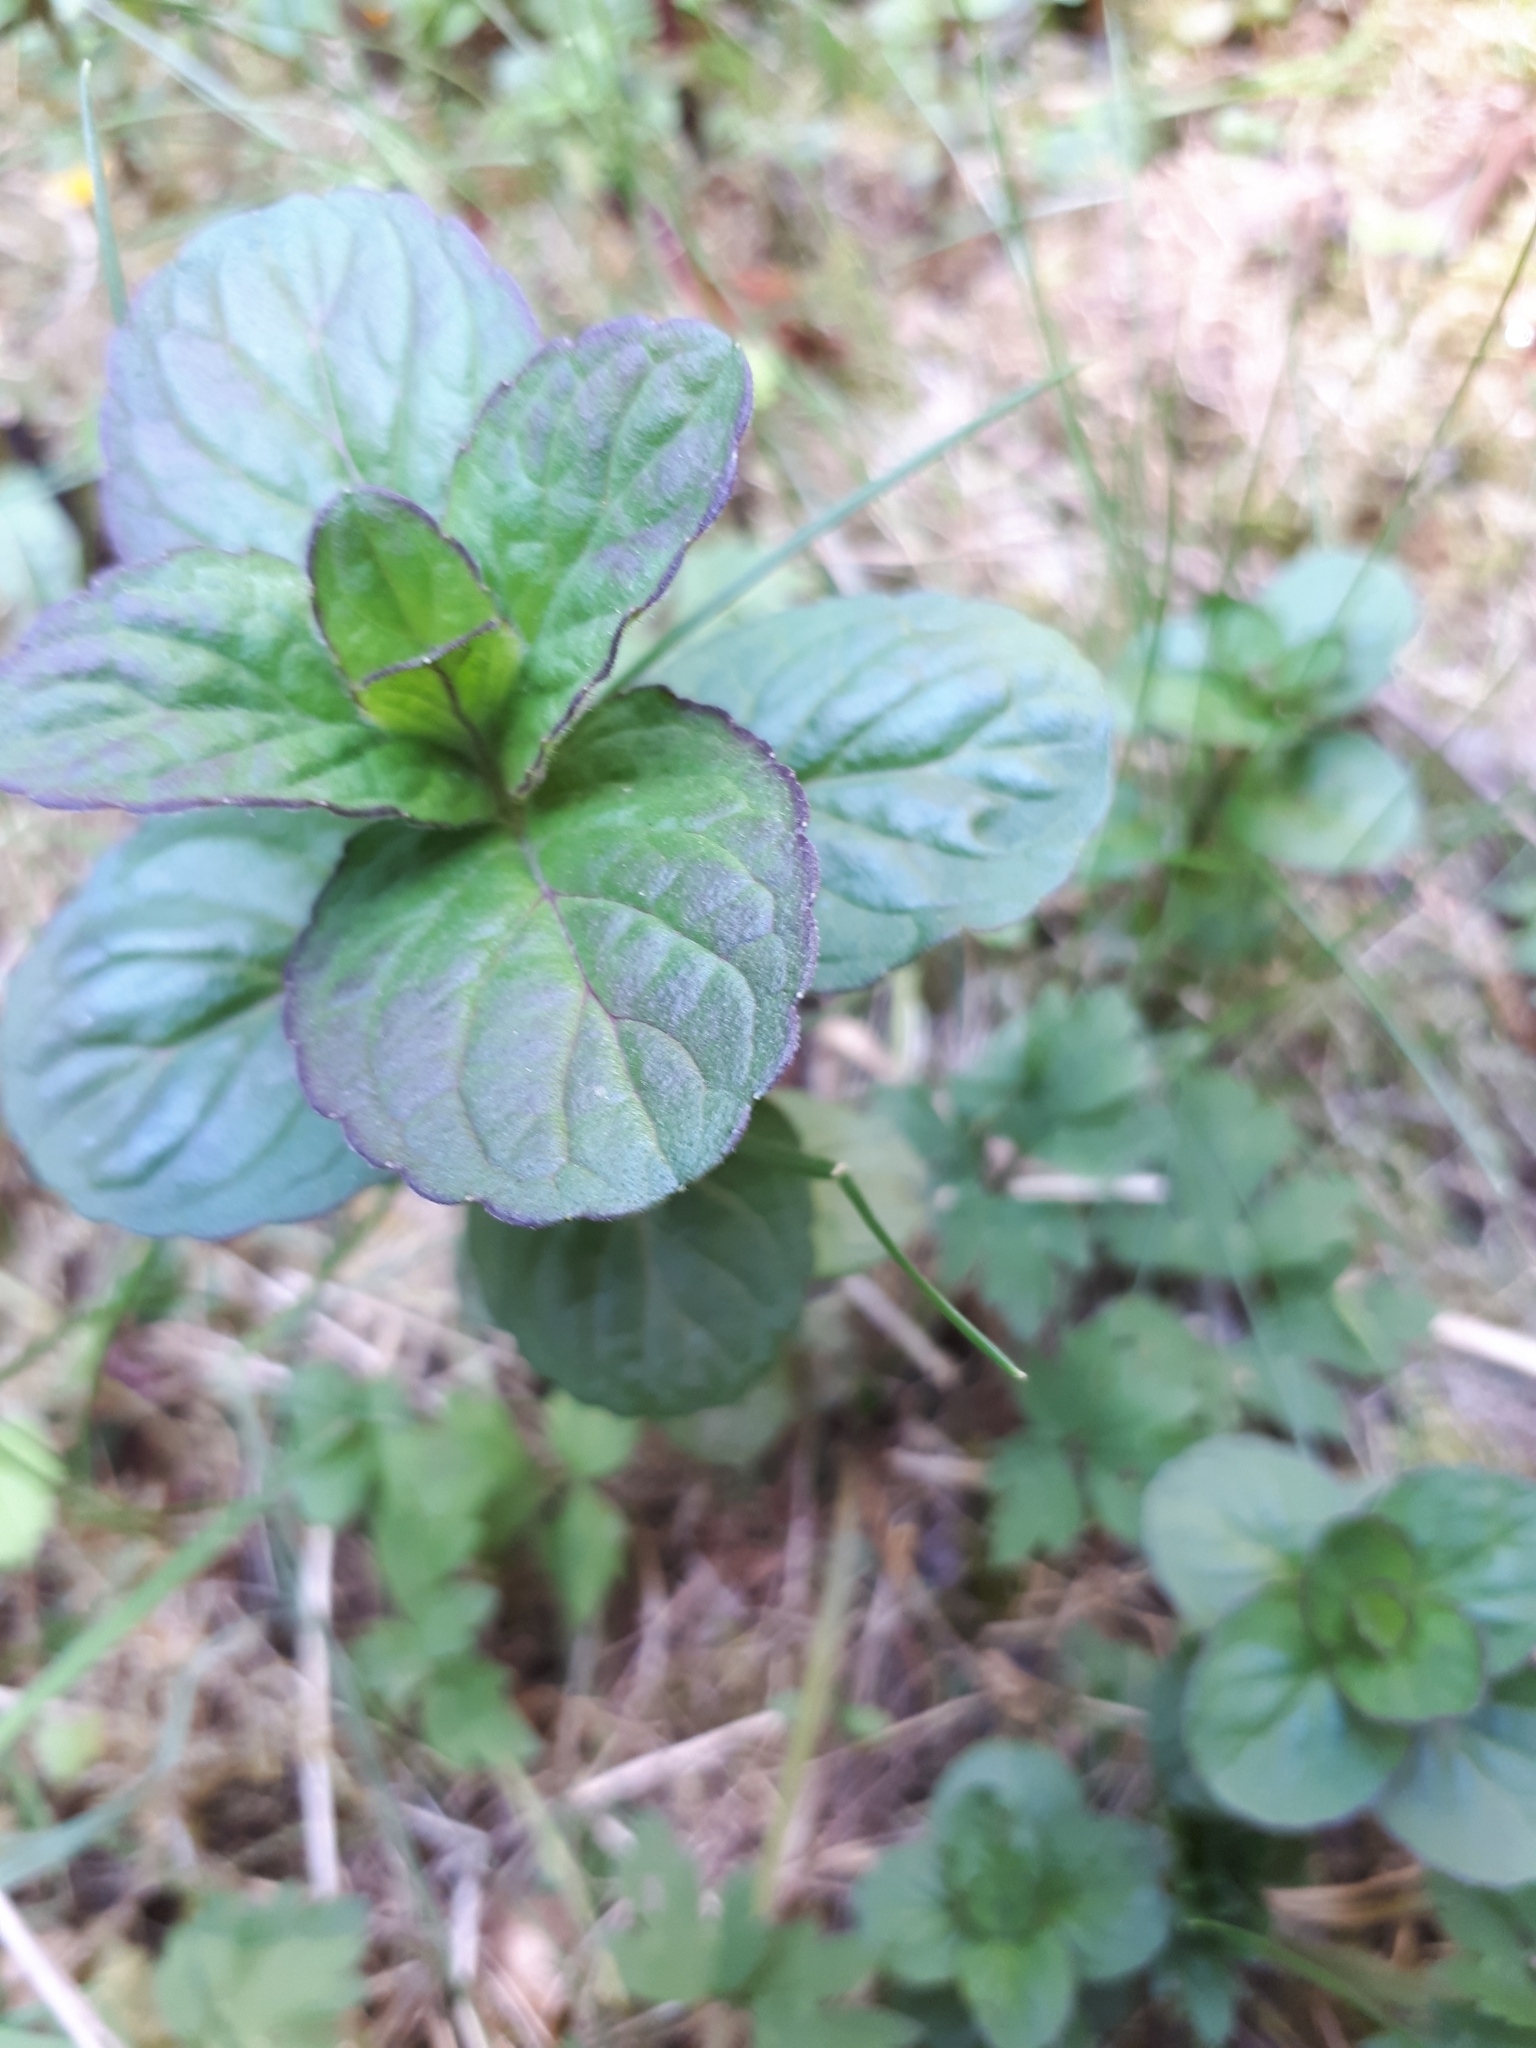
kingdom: Plantae
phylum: Tracheophyta
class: Magnoliopsida
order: Lamiales
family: Lamiaceae
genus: Mentha
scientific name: Mentha aquatica
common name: Water mint
